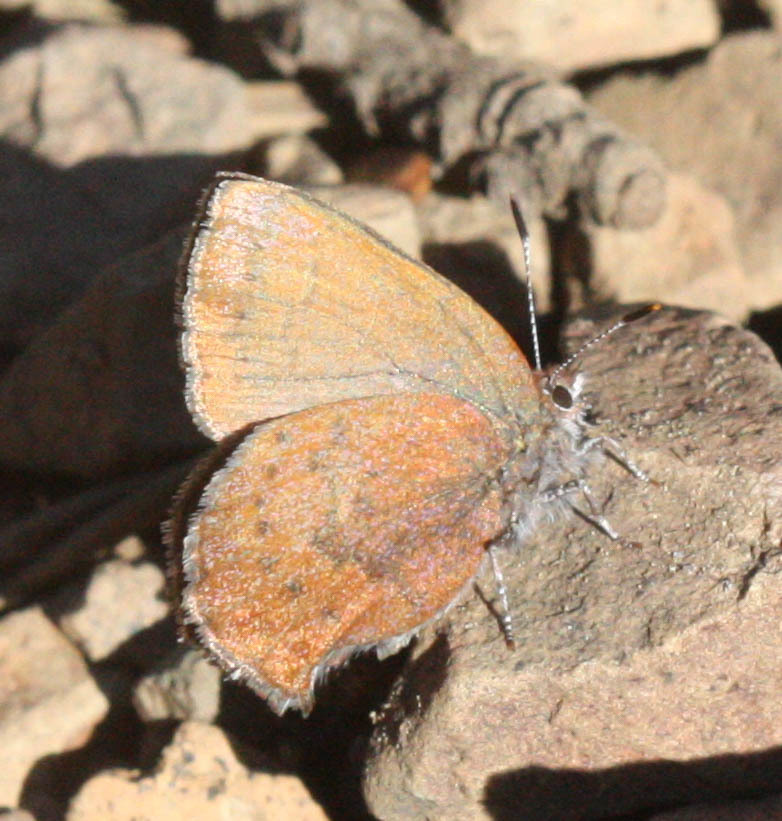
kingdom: Animalia
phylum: Arthropoda
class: Insecta
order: Lepidoptera
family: Lycaenidae
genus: Incisalia
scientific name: Incisalia irioides
